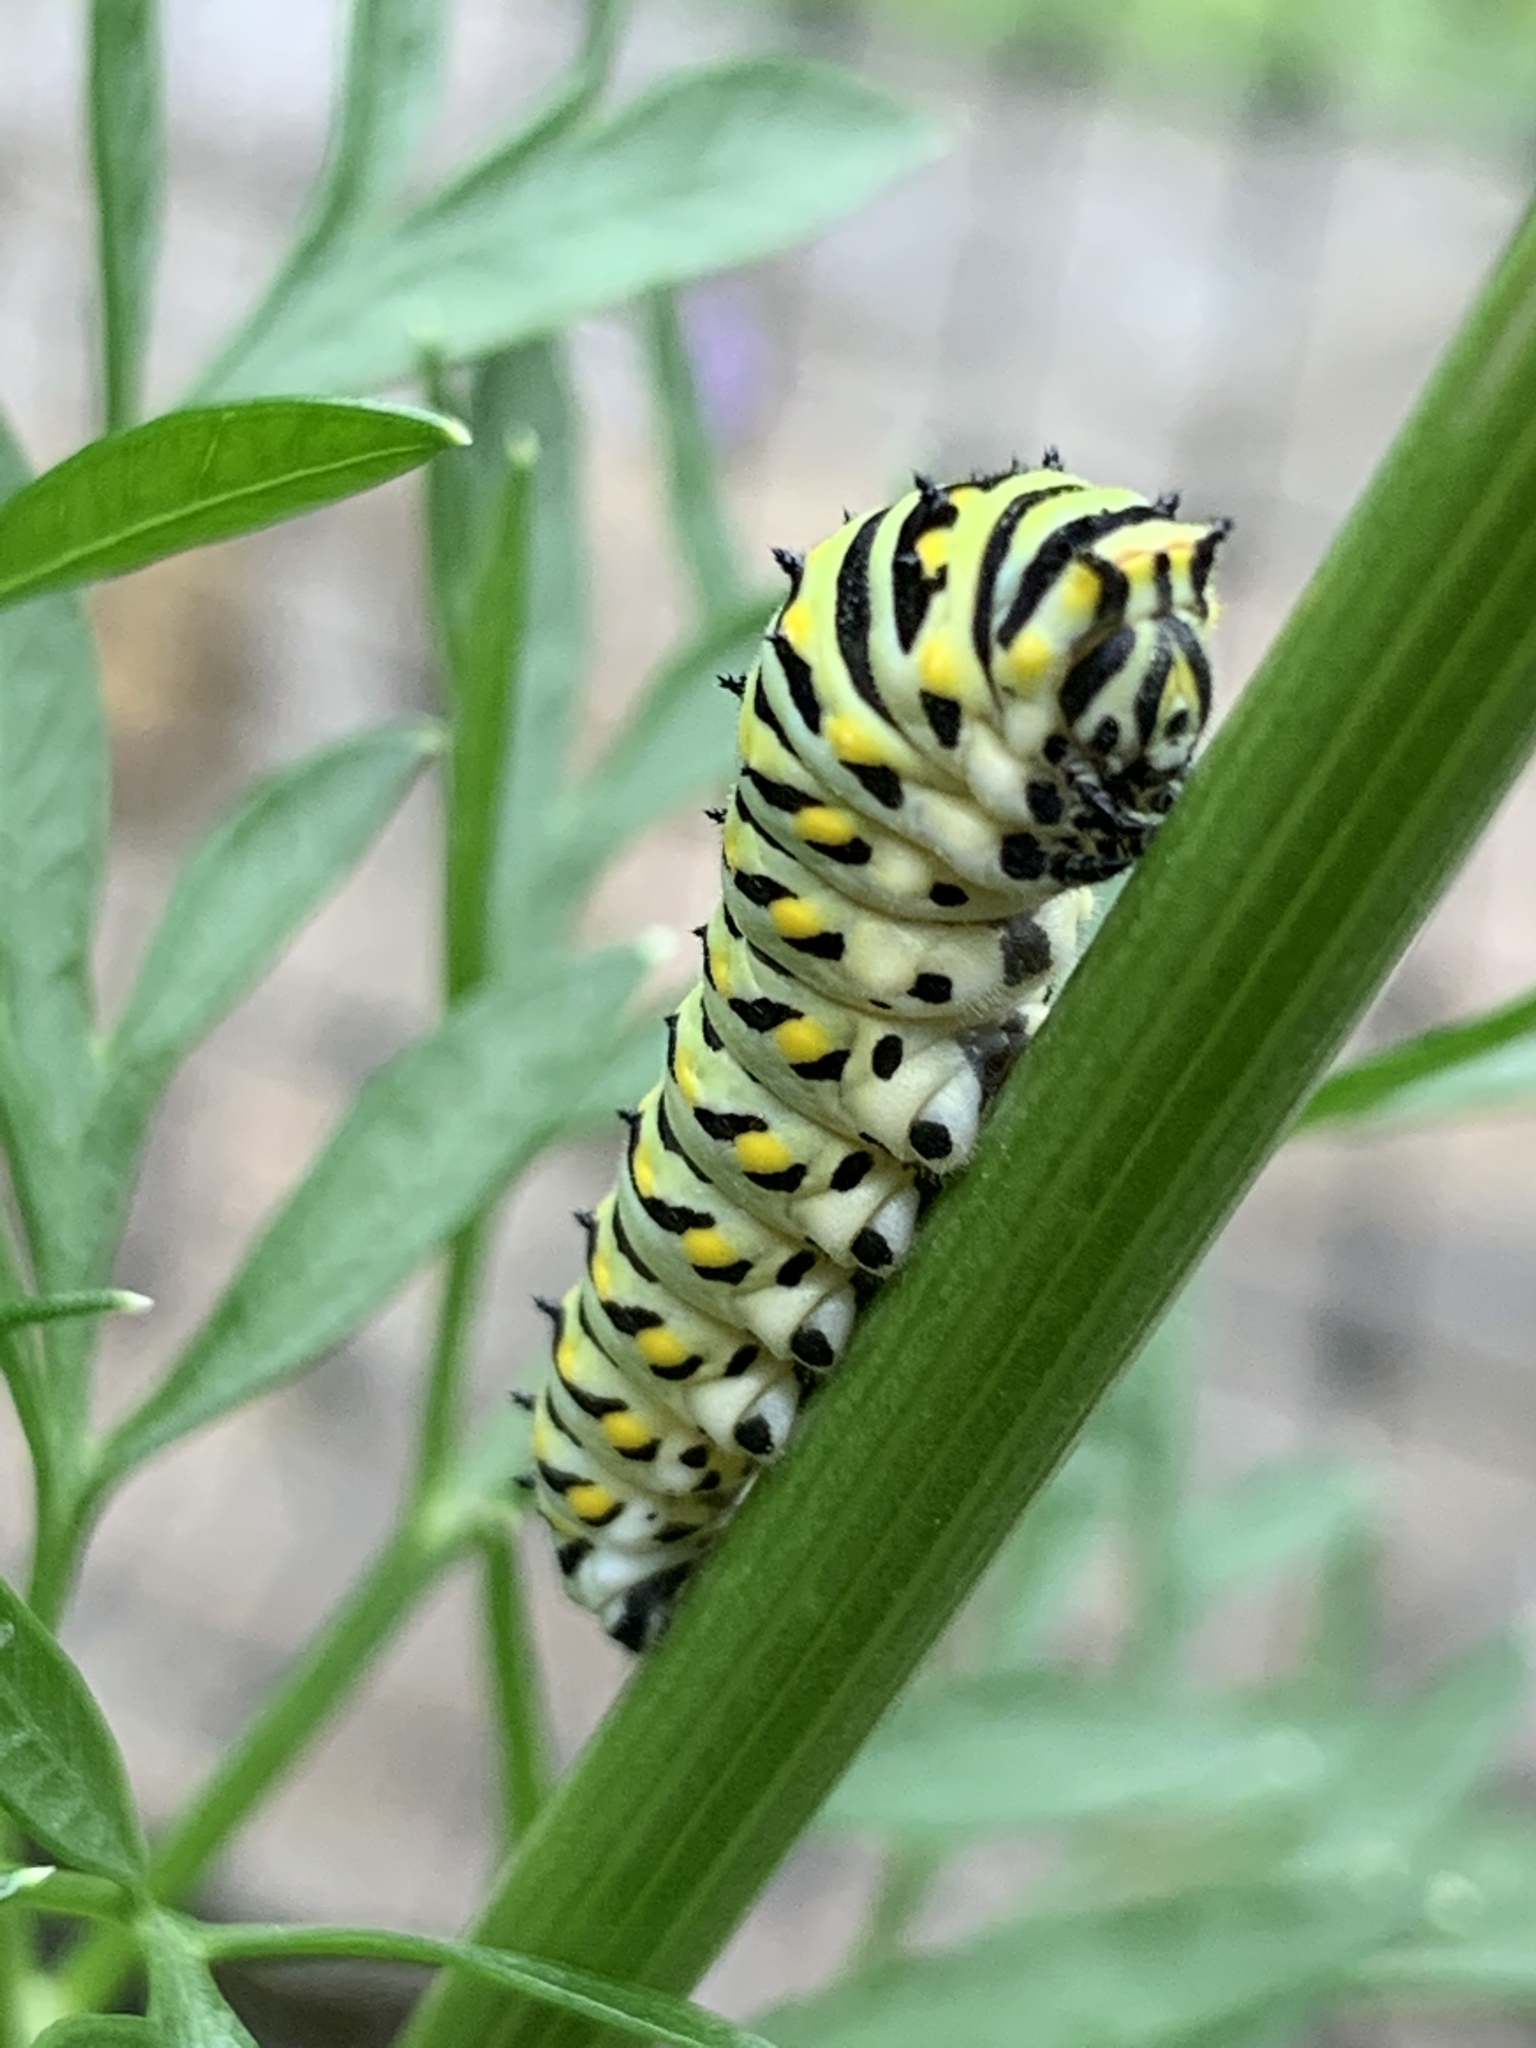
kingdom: Animalia
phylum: Arthropoda
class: Insecta
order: Lepidoptera
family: Papilionidae
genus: Papilio
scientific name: Papilio polyxenes
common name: Black swallowtail
